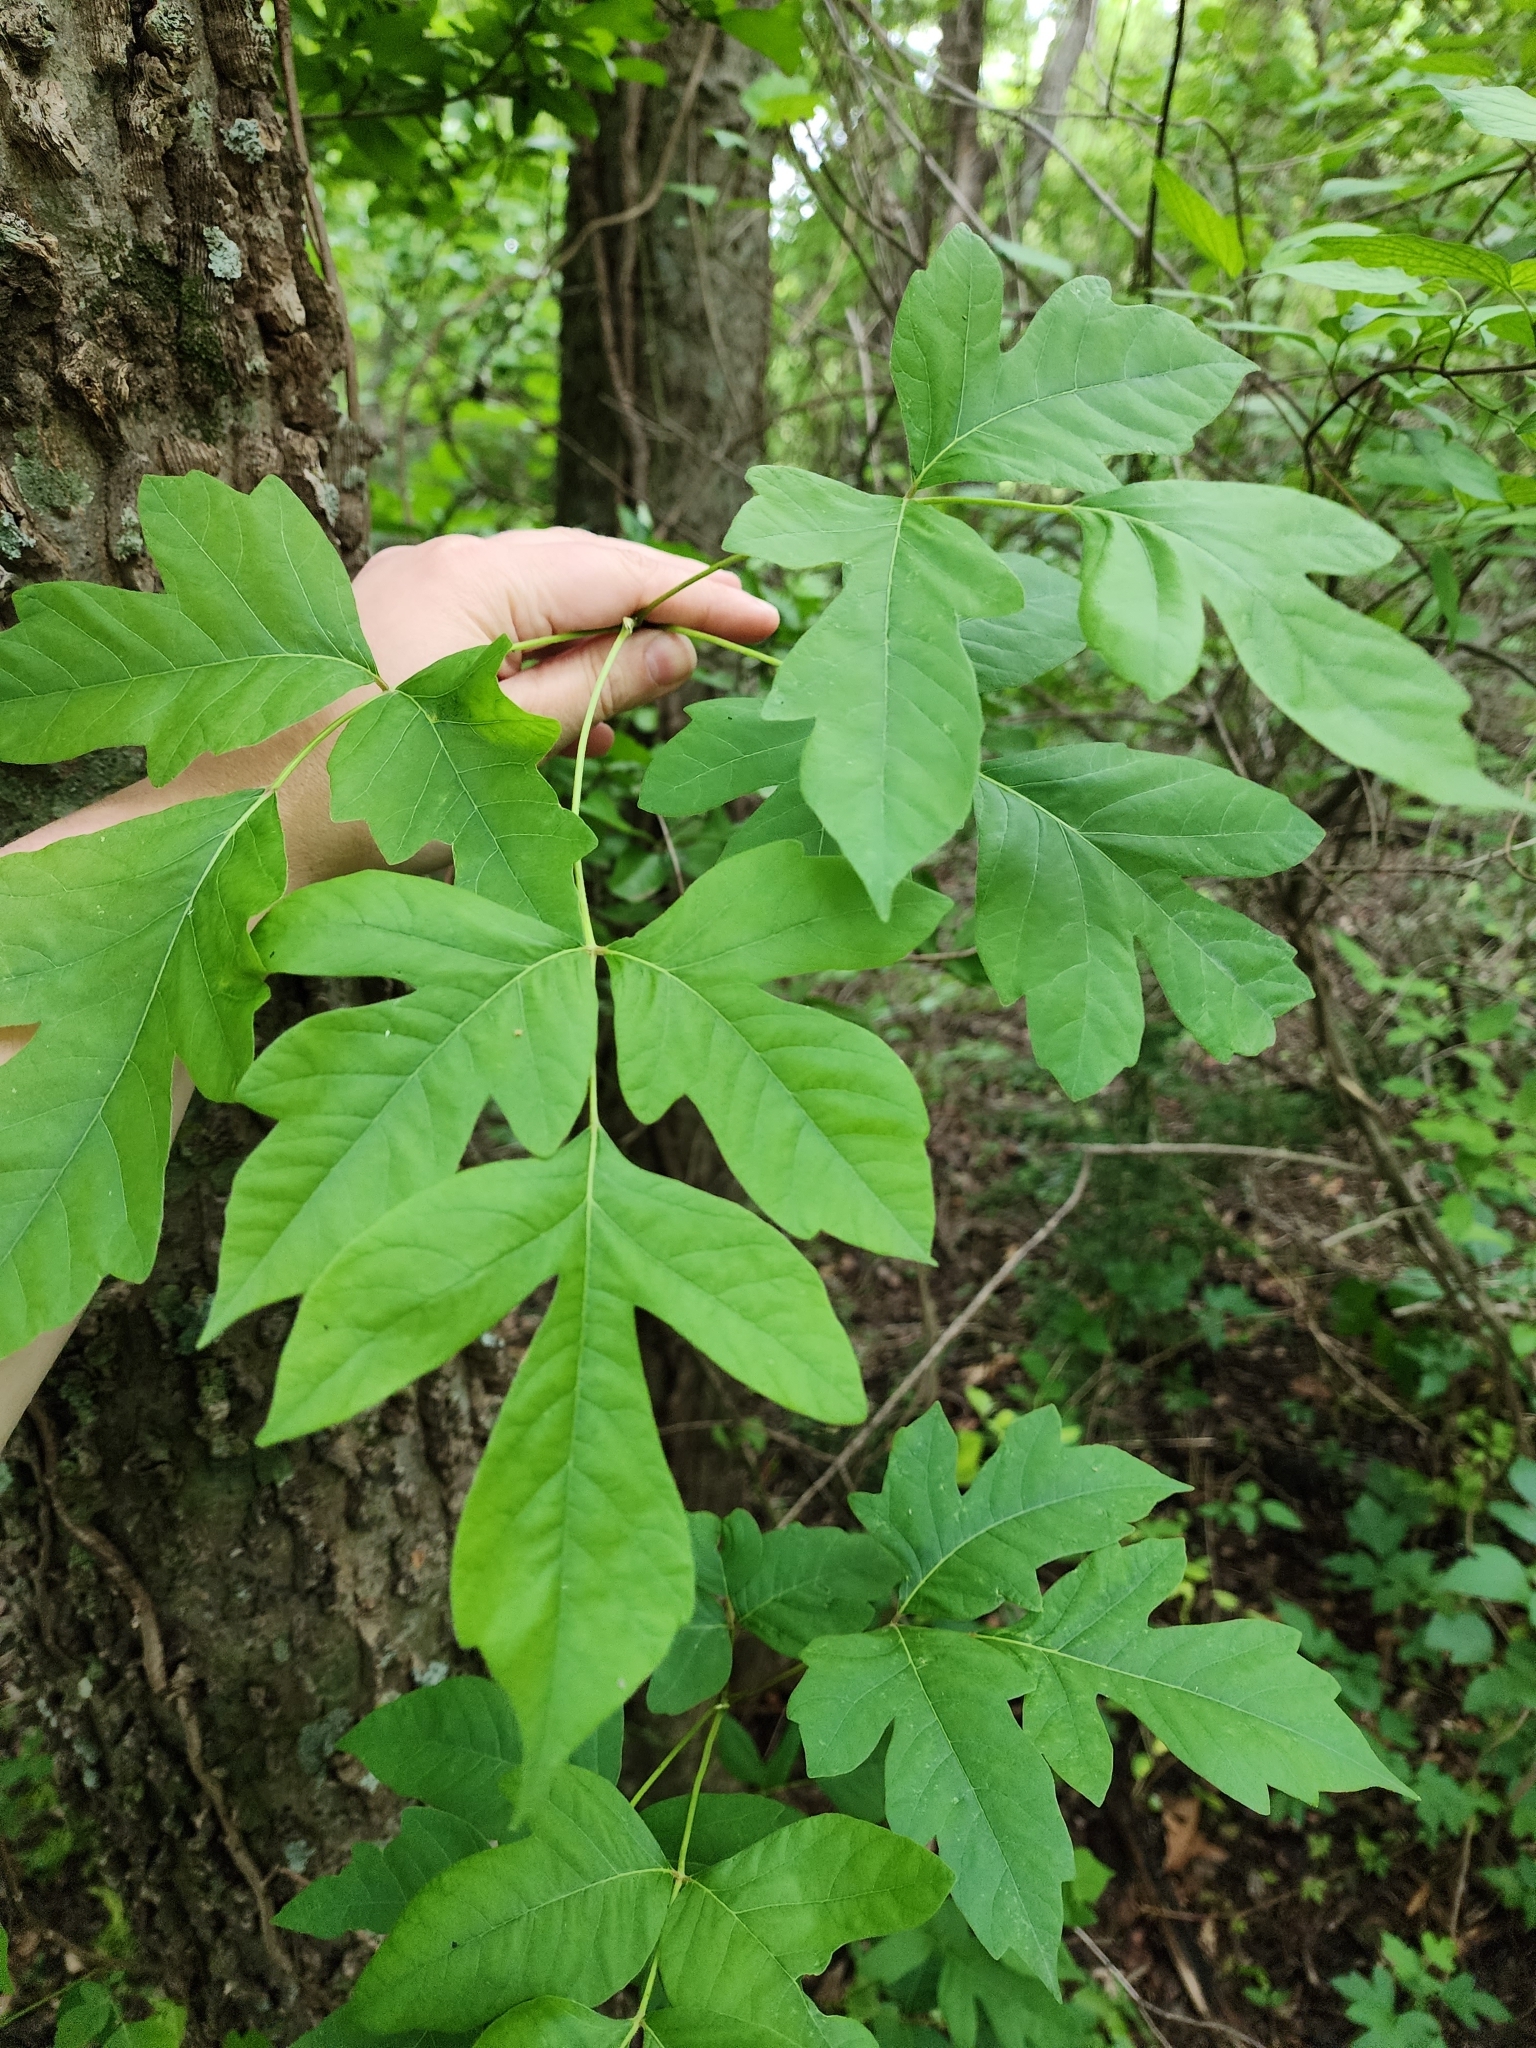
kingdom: Plantae
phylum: Tracheophyta
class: Magnoliopsida
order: Rosales
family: Cannabaceae
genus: Celtis
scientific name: Celtis laevigata
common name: Sugarberry
